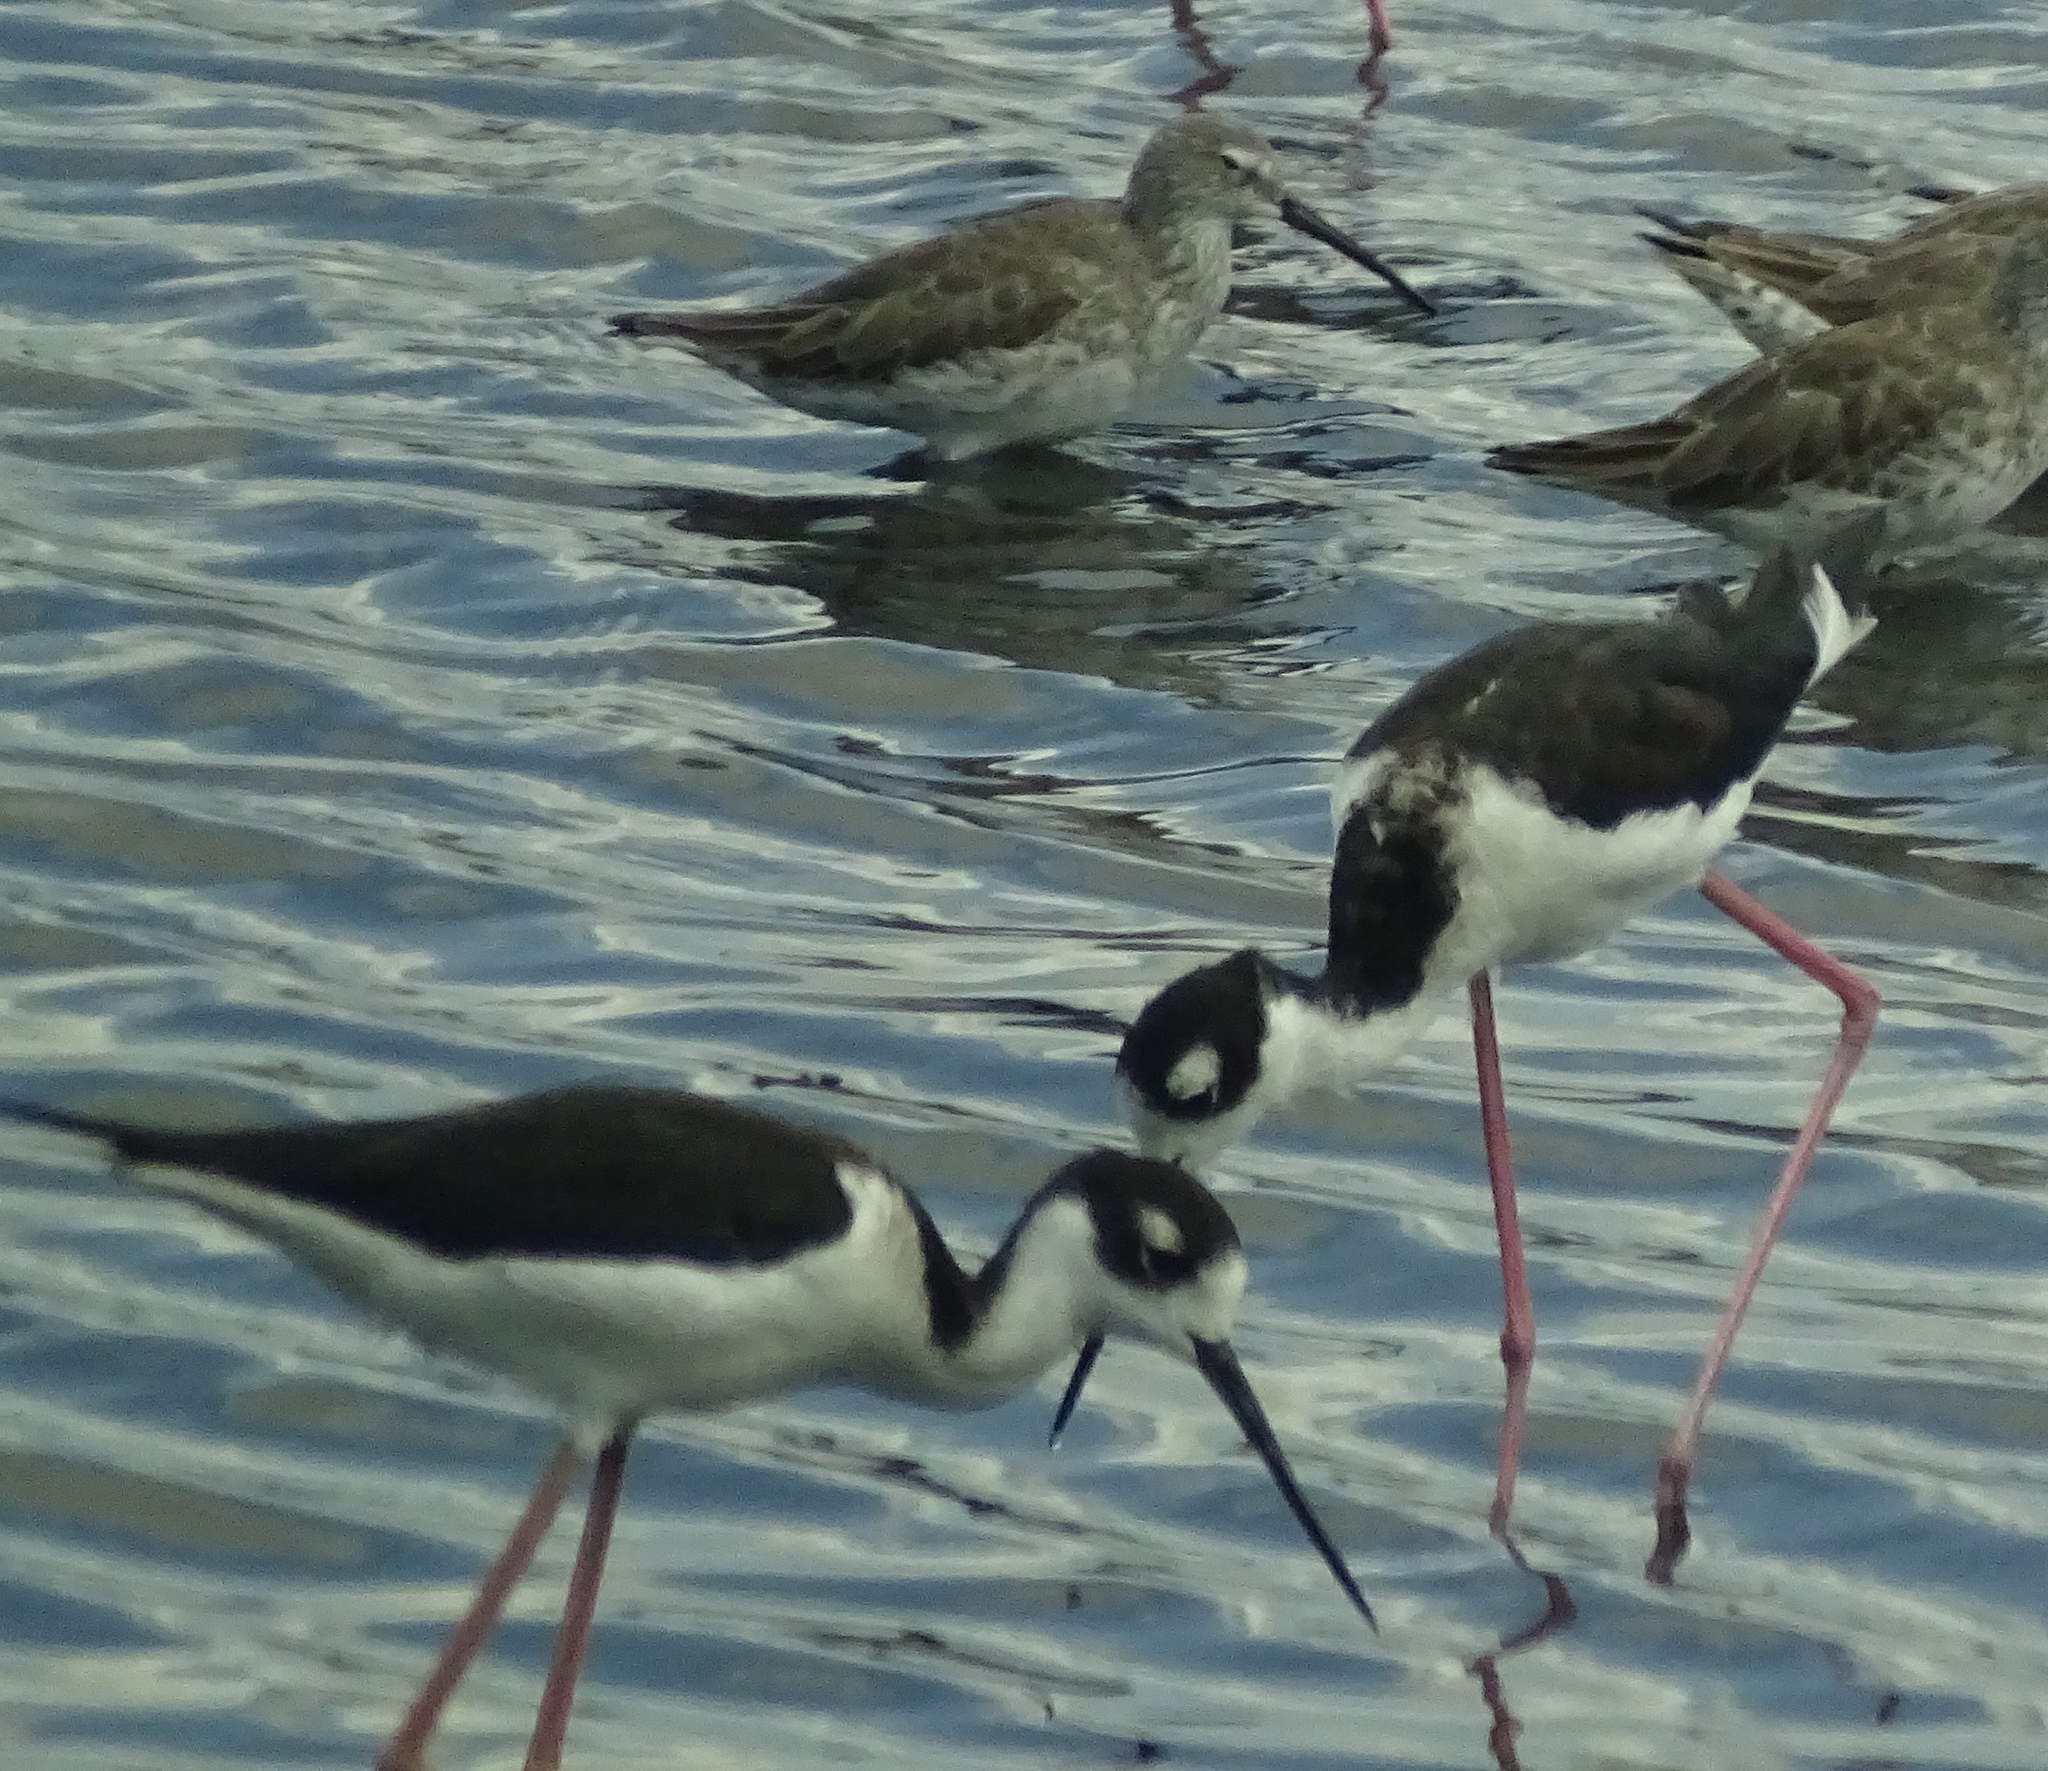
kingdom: Animalia
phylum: Chordata
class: Aves
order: Charadriiformes
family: Recurvirostridae
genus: Himantopus
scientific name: Himantopus mexicanus
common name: Black-necked stilt
